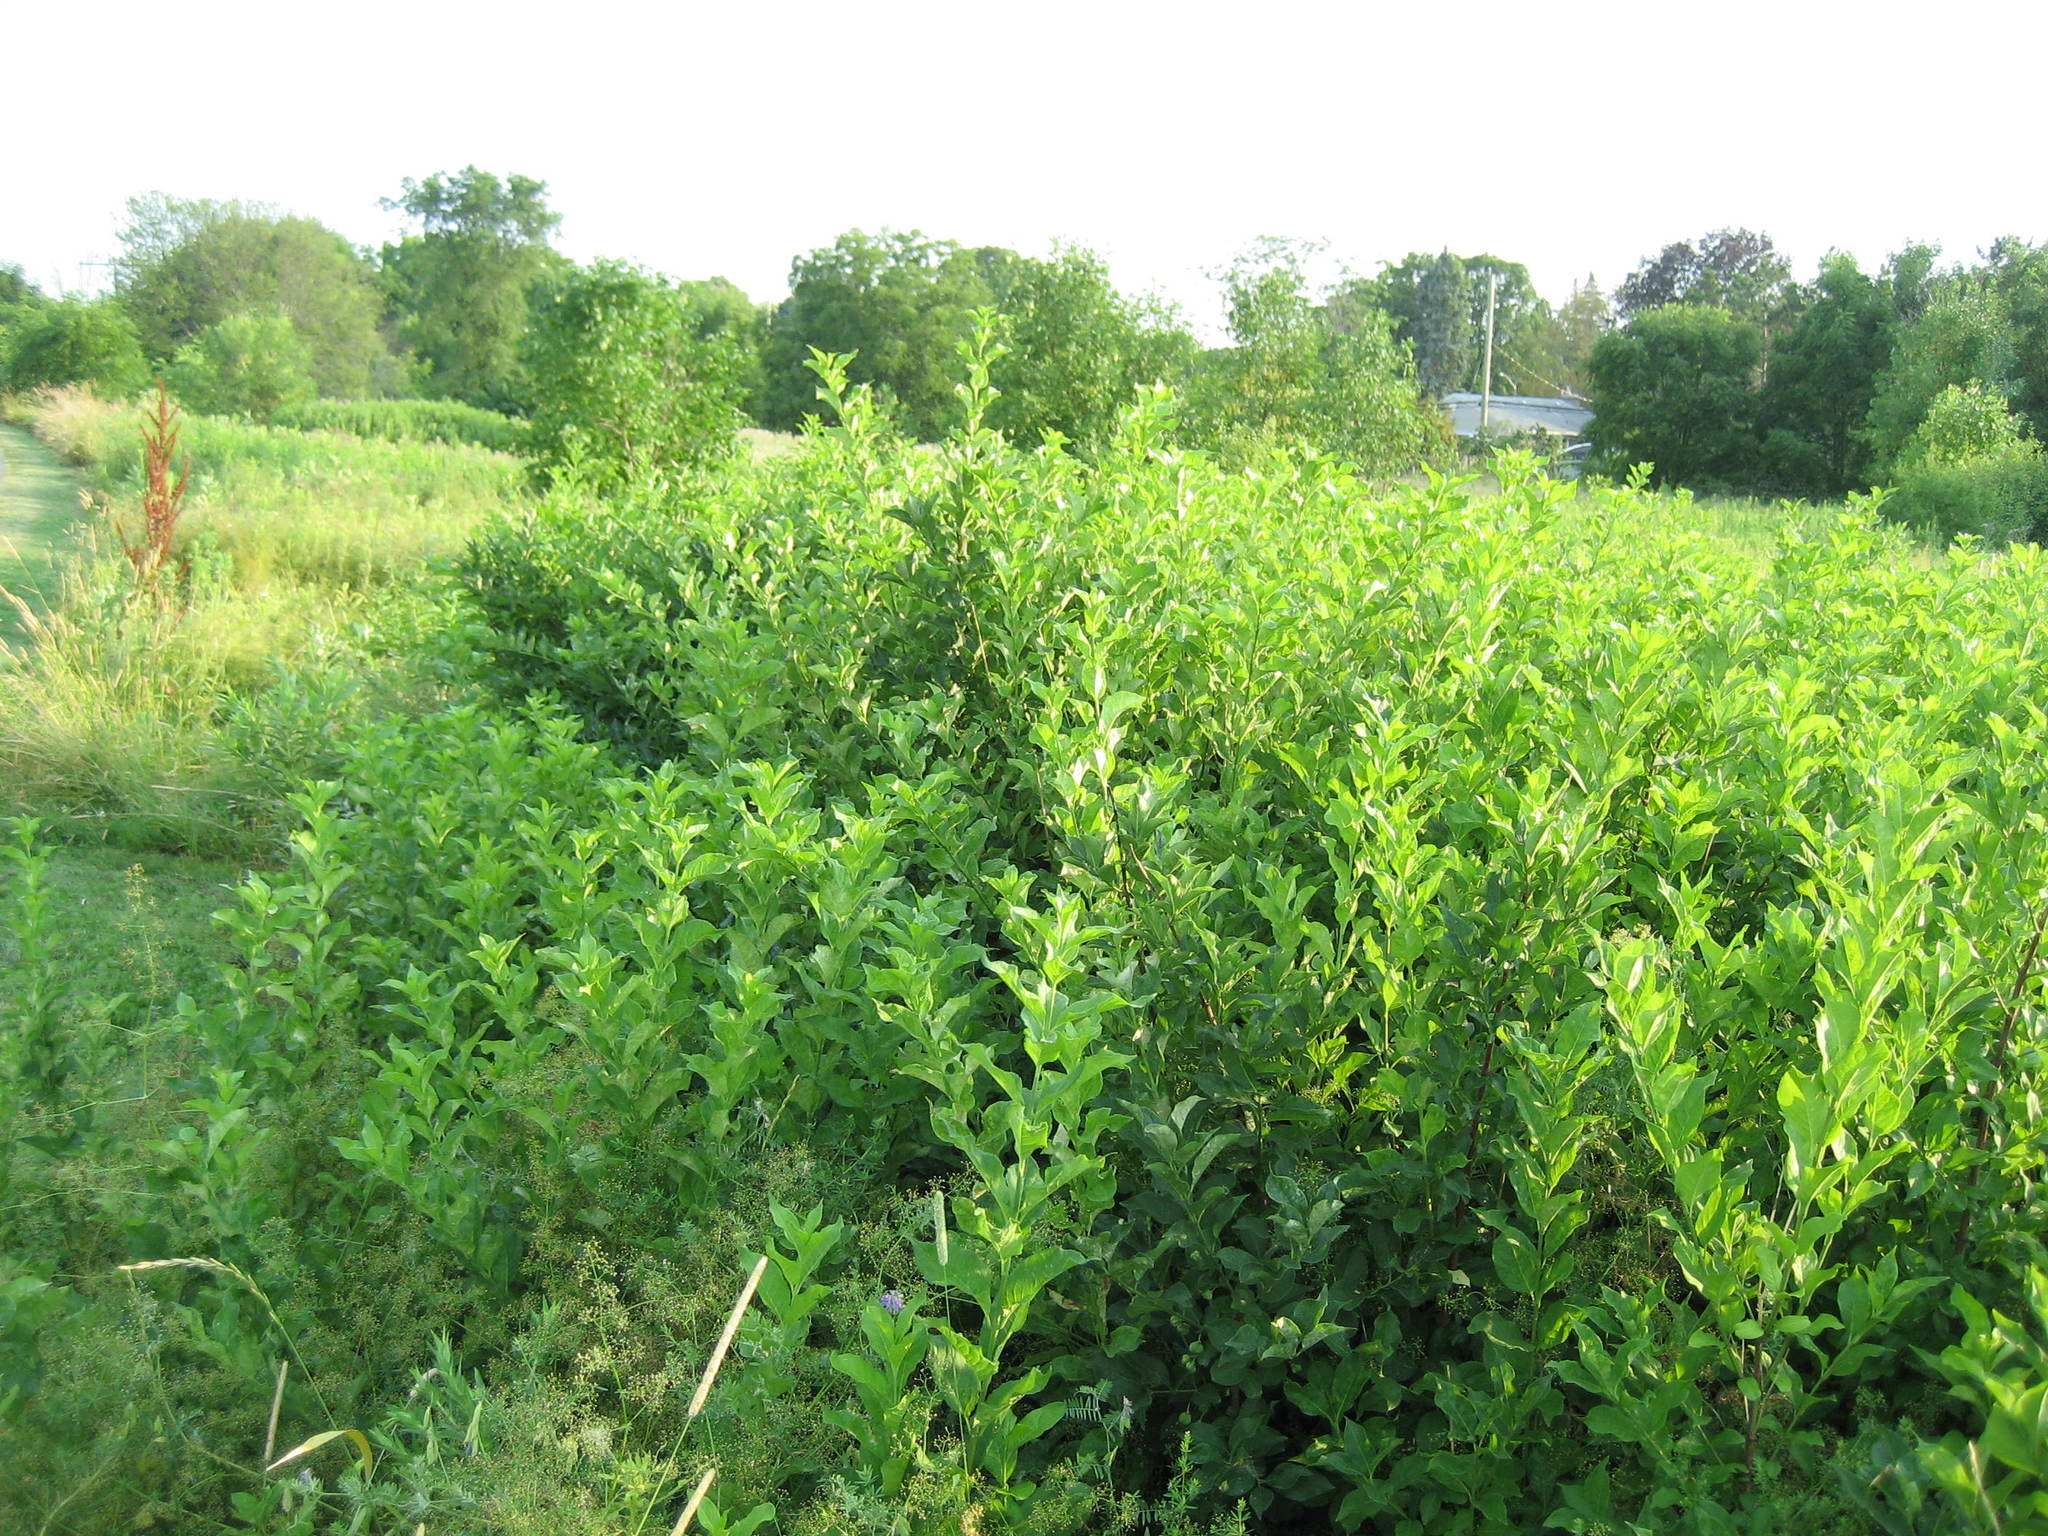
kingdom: Plantae
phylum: Tracheophyta
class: Magnoliopsida
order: Celastrales
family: Celastraceae
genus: Euonymus
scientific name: Euonymus europaeus
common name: Spindle
